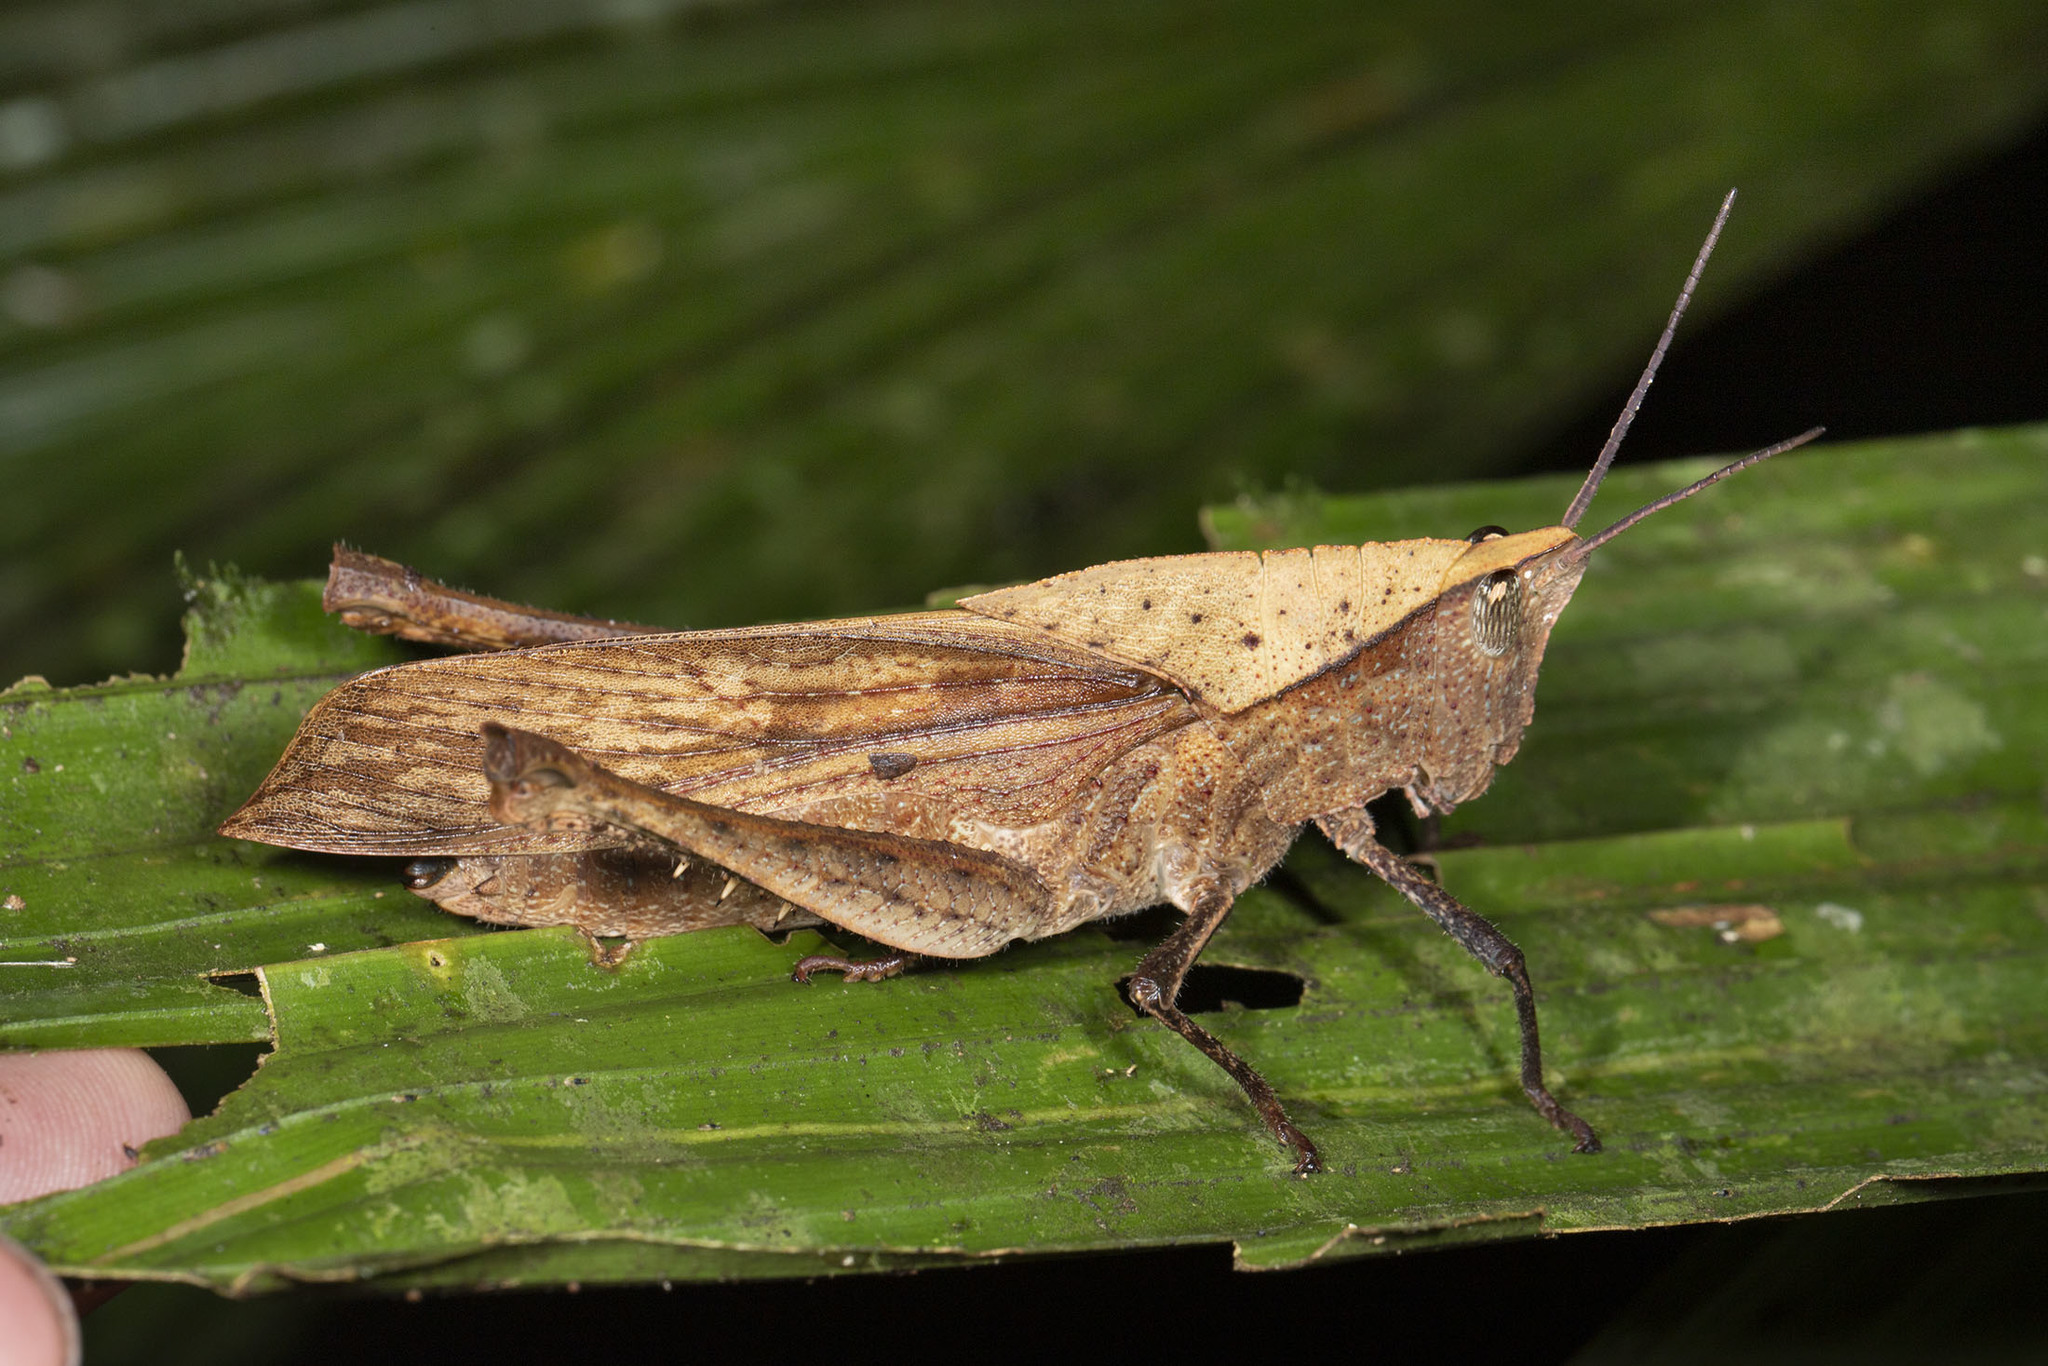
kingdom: Animalia
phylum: Arthropoda
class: Insecta
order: Orthoptera
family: Romaleidae
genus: Colpolopha
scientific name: Colpolopha latipennis
